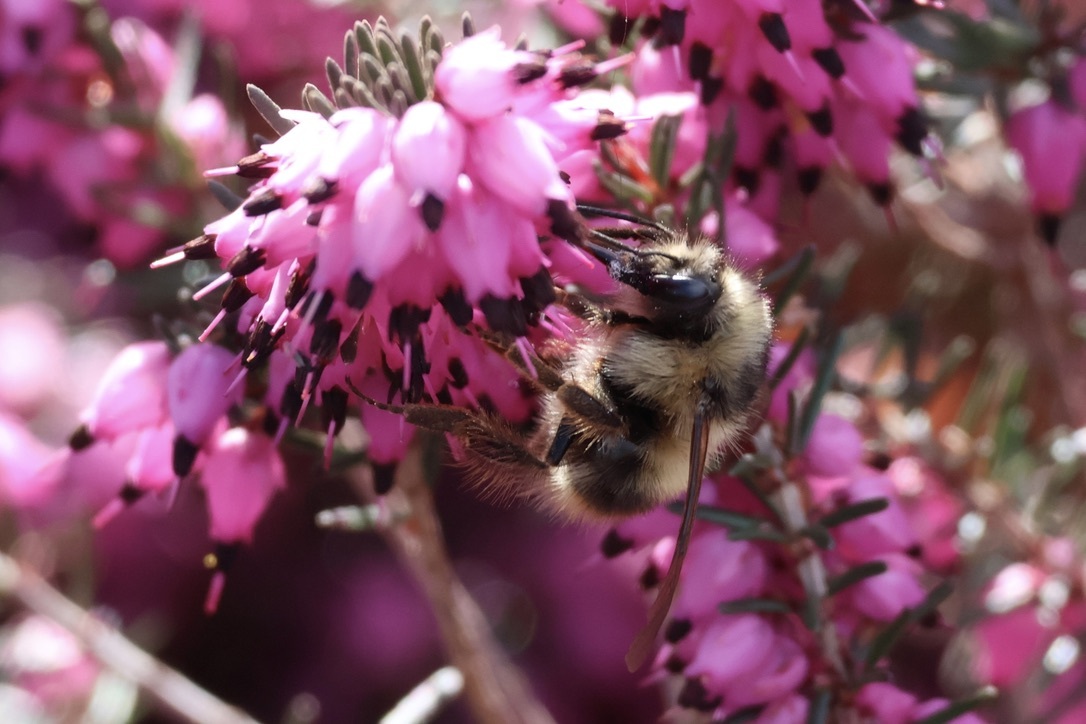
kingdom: Animalia
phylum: Arthropoda
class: Insecta
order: Hymenoptera
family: Apidae
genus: Bombus
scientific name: Bombus mixtus
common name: Fuzzy-horned bumble bee
